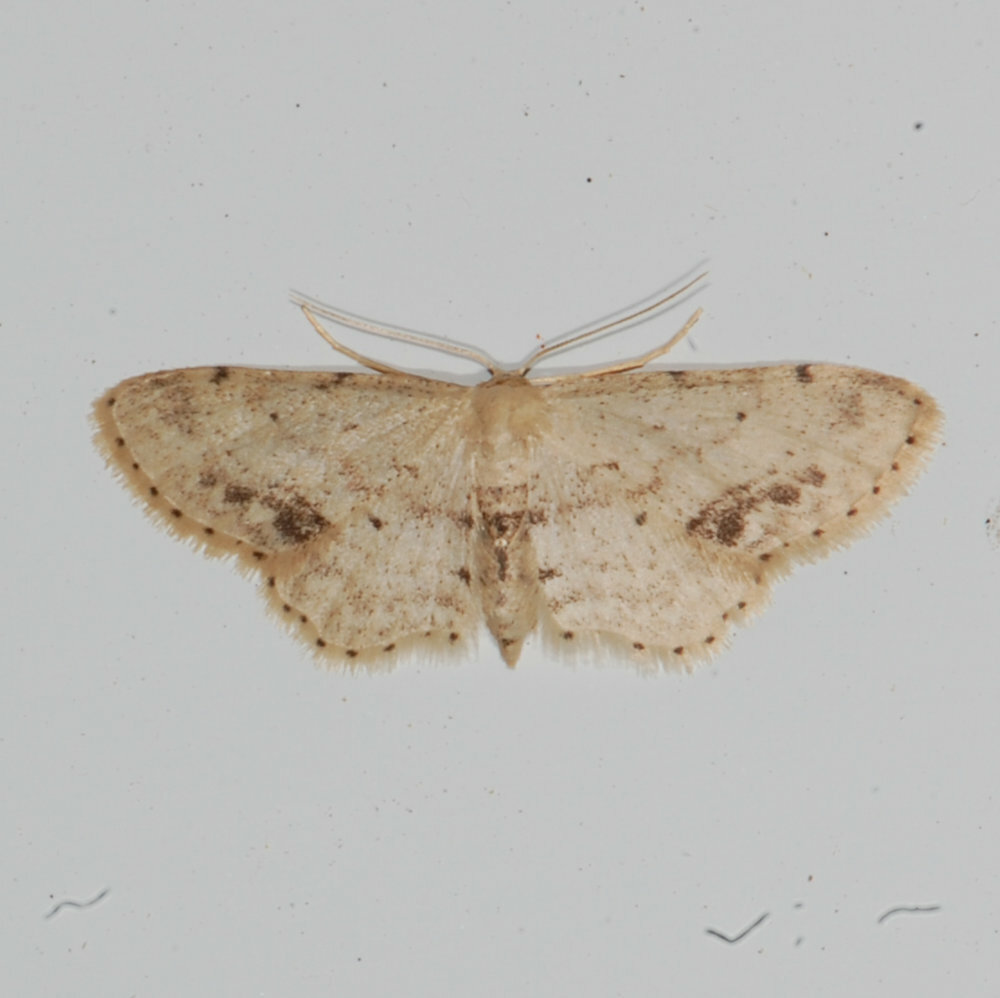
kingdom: Animalia
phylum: Arthropoda
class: Insecta
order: Lepidoptera
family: Geometridae
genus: Idaea
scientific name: Idaea dimidiata
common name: Single-dotted wave
